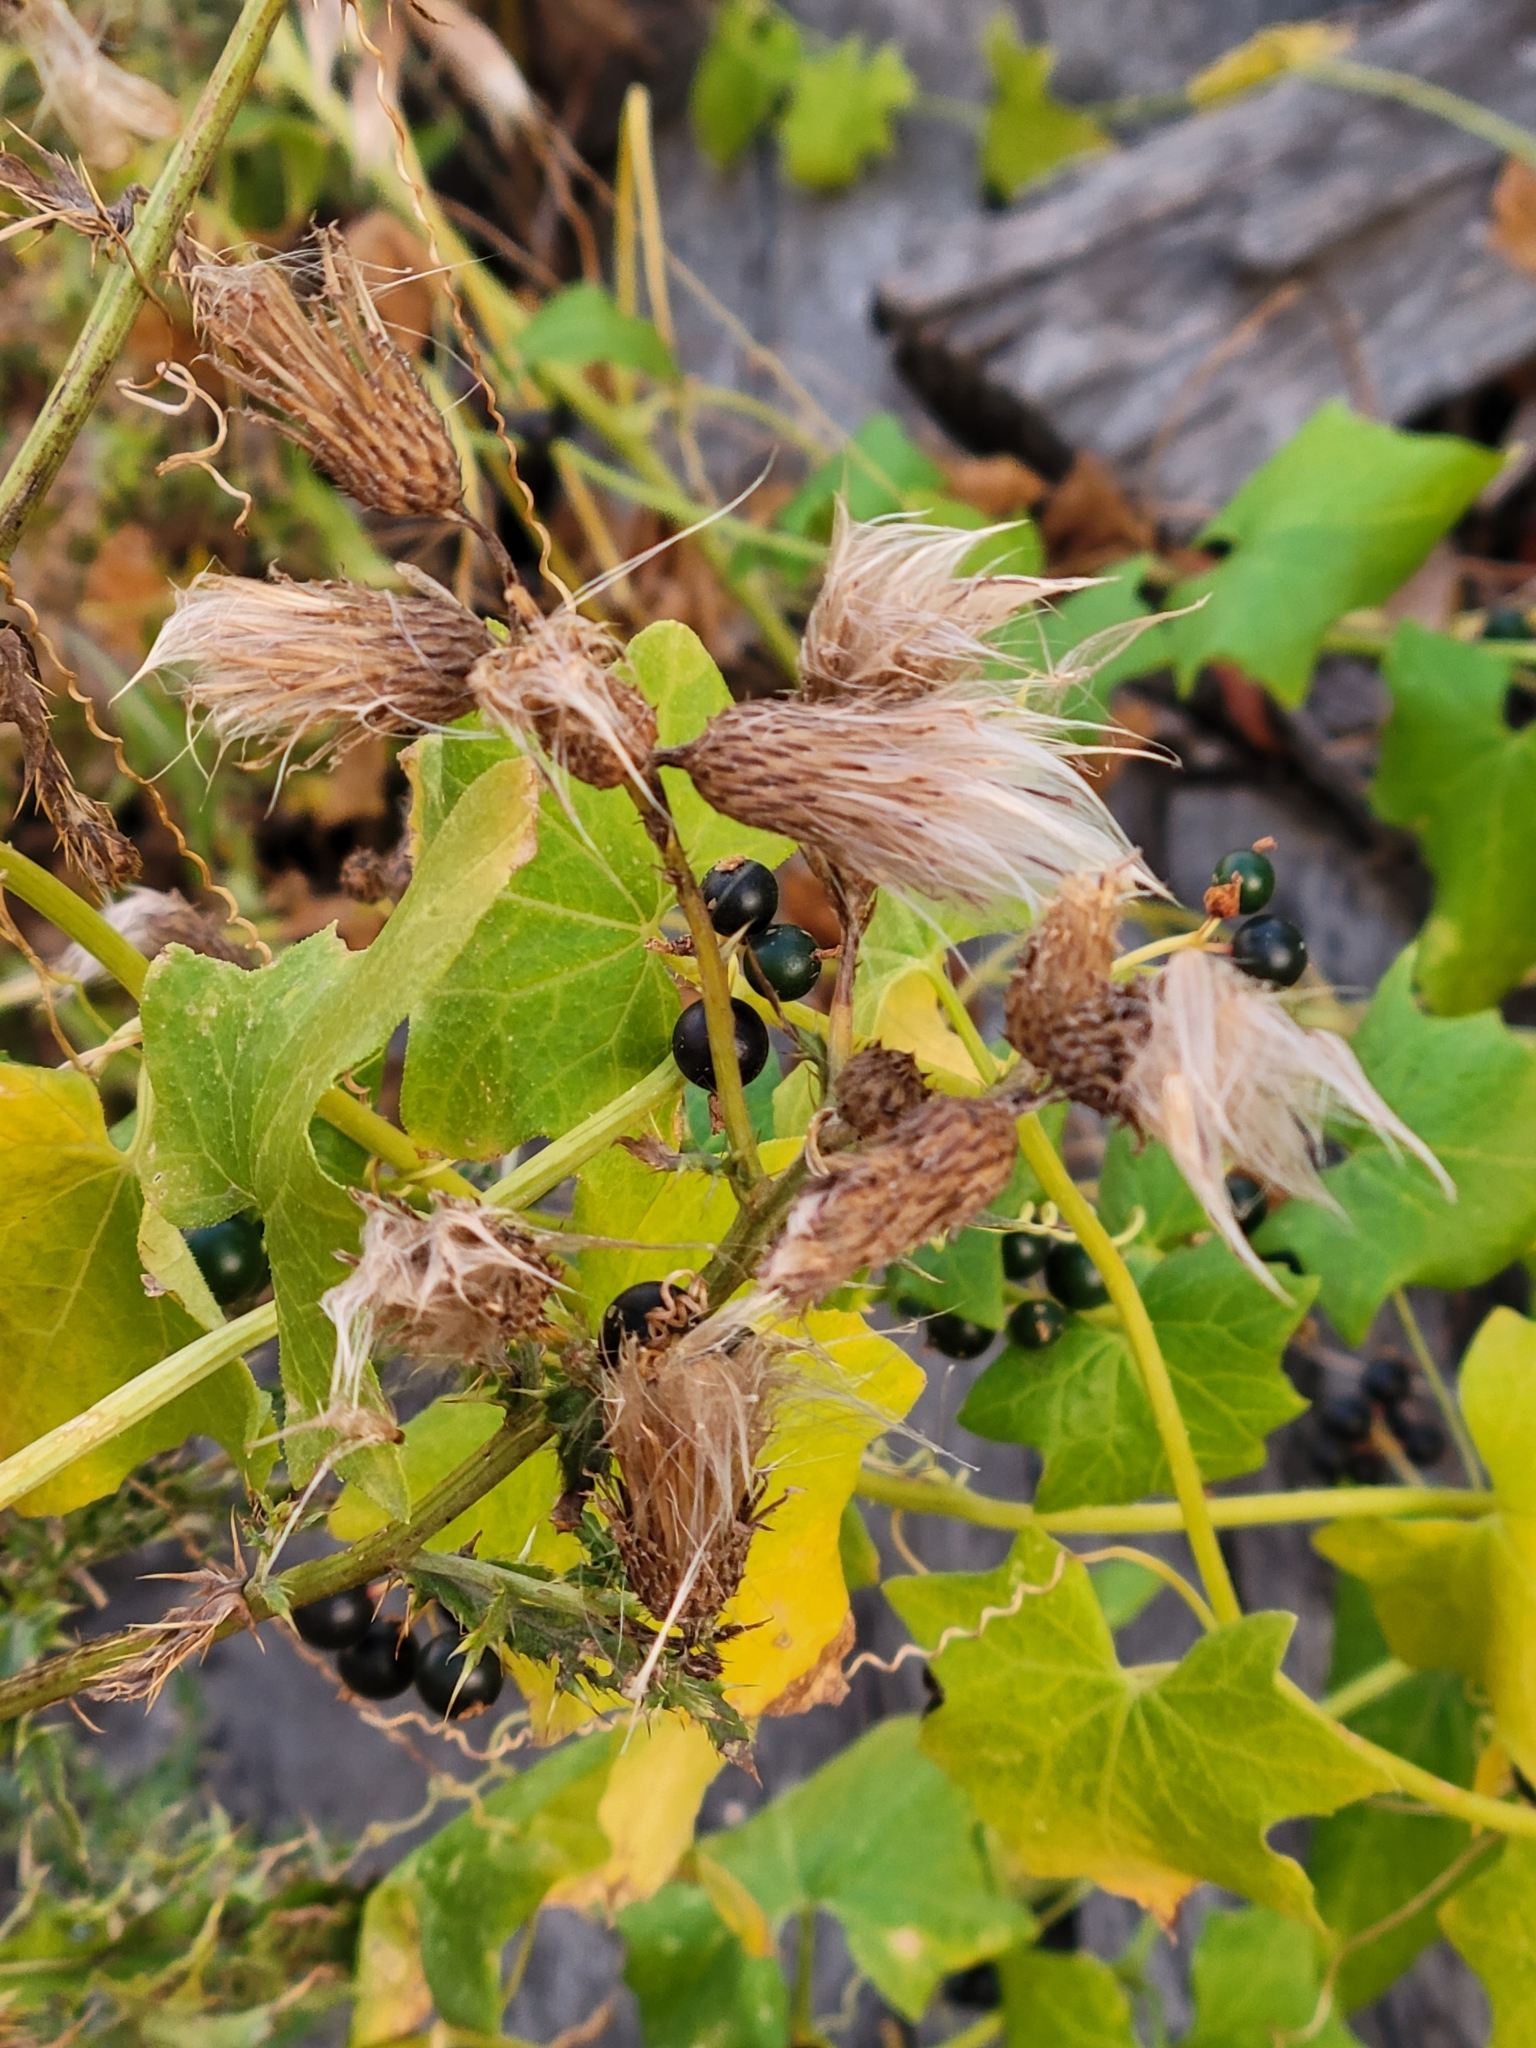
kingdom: Plantae
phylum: Tracheophyta
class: Magnoliopsida
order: Cucurbitales
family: Cucurbitaceae
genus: Bryonia
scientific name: Bryonia alba
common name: White bryony
